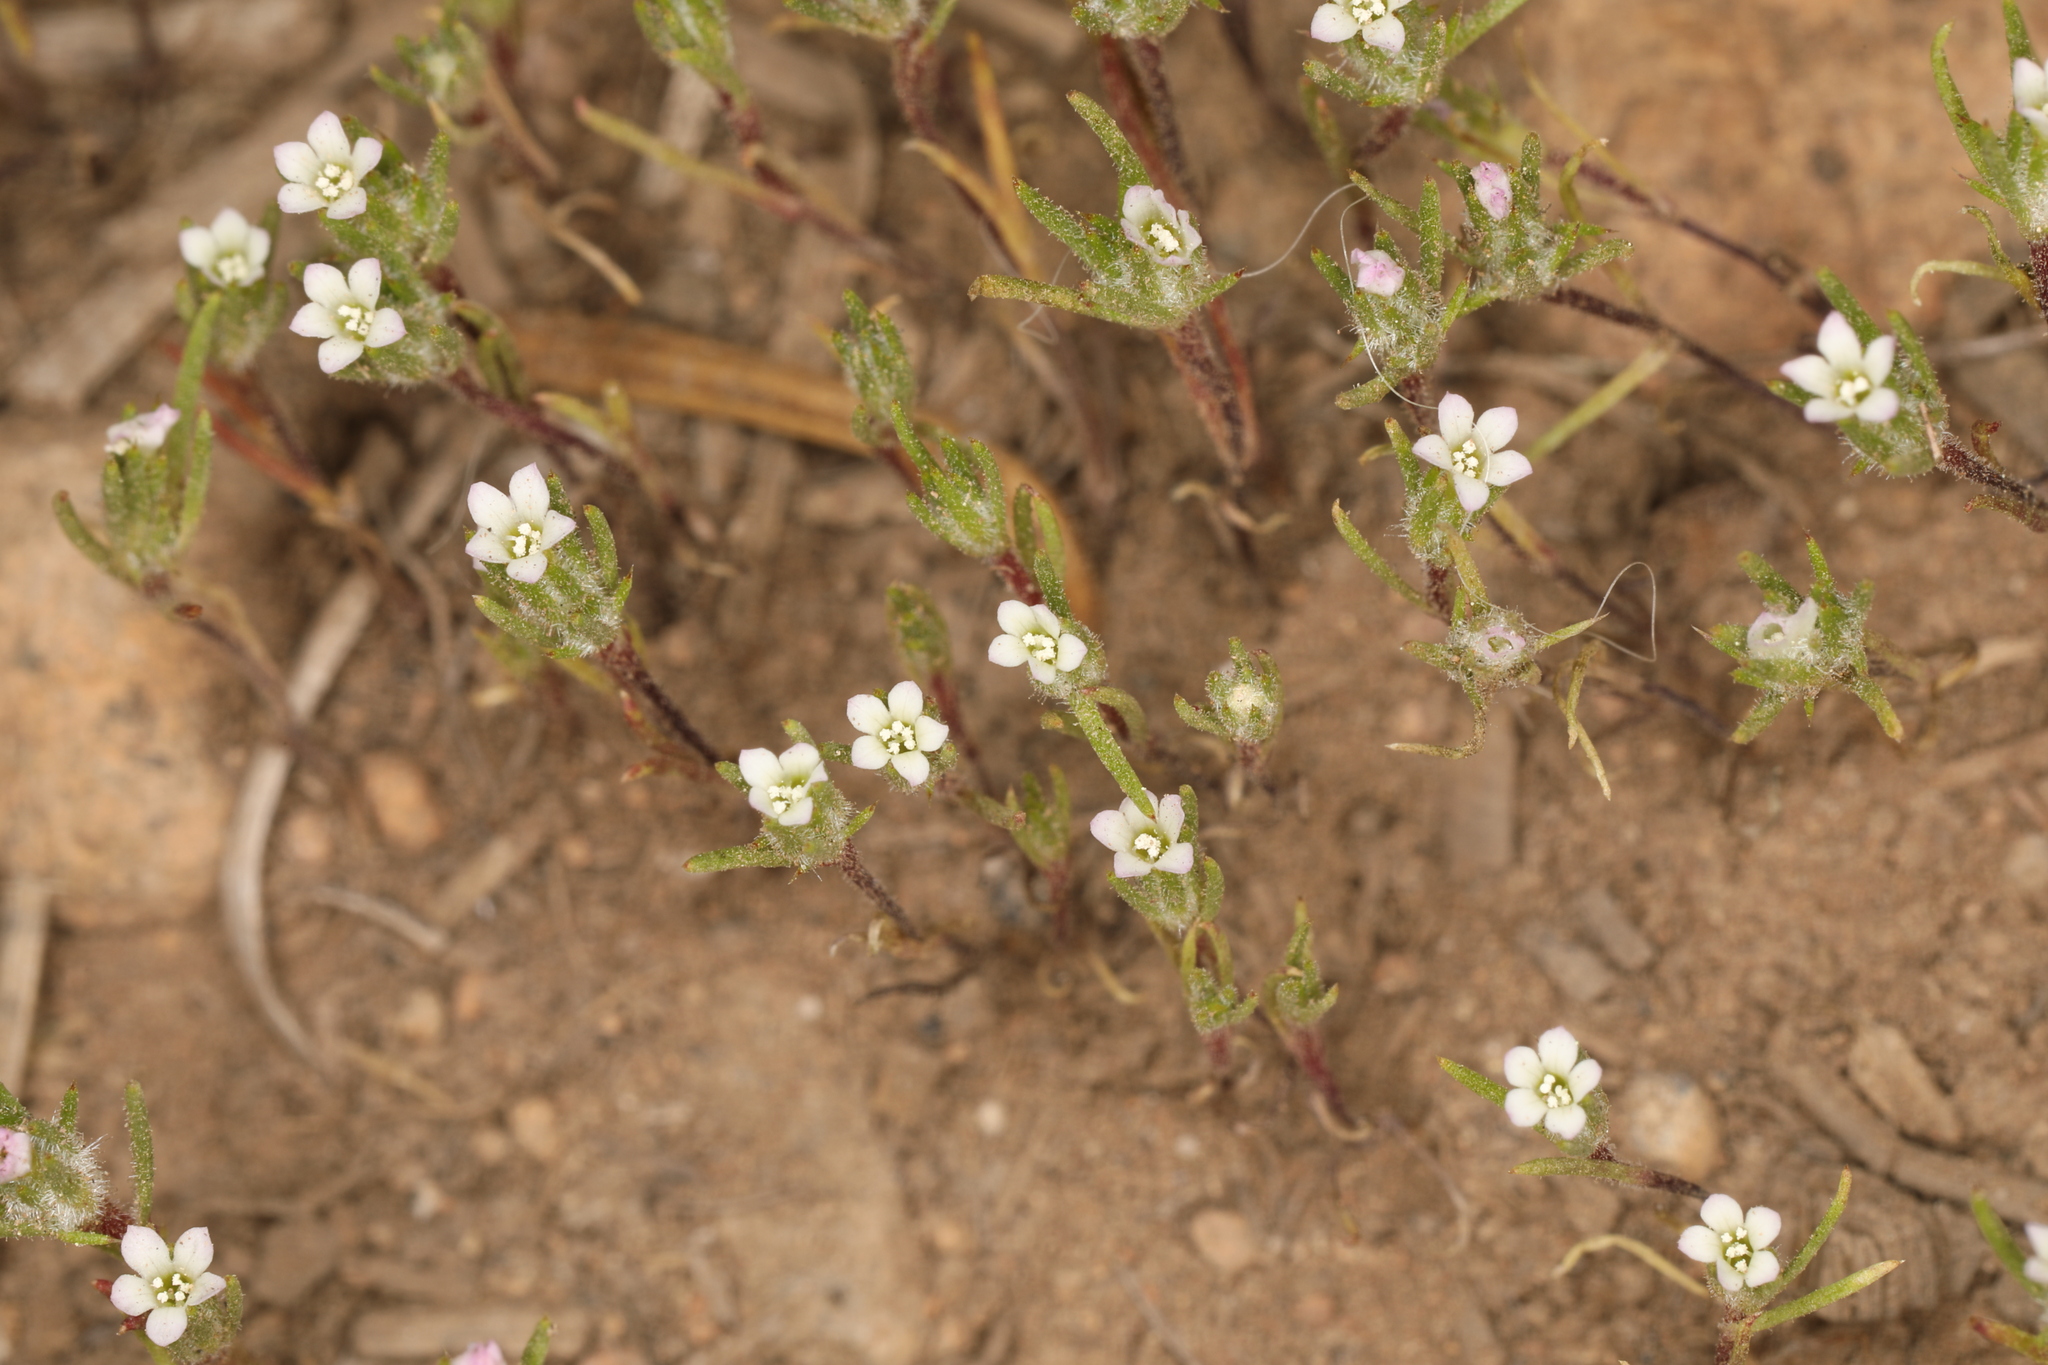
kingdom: Plantae
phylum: Tracheophyta
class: Magnoliopsida
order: Ericales
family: Polemoniaceae
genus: Navarretia
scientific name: Navarretia divaricata
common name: Mountain navarretia
